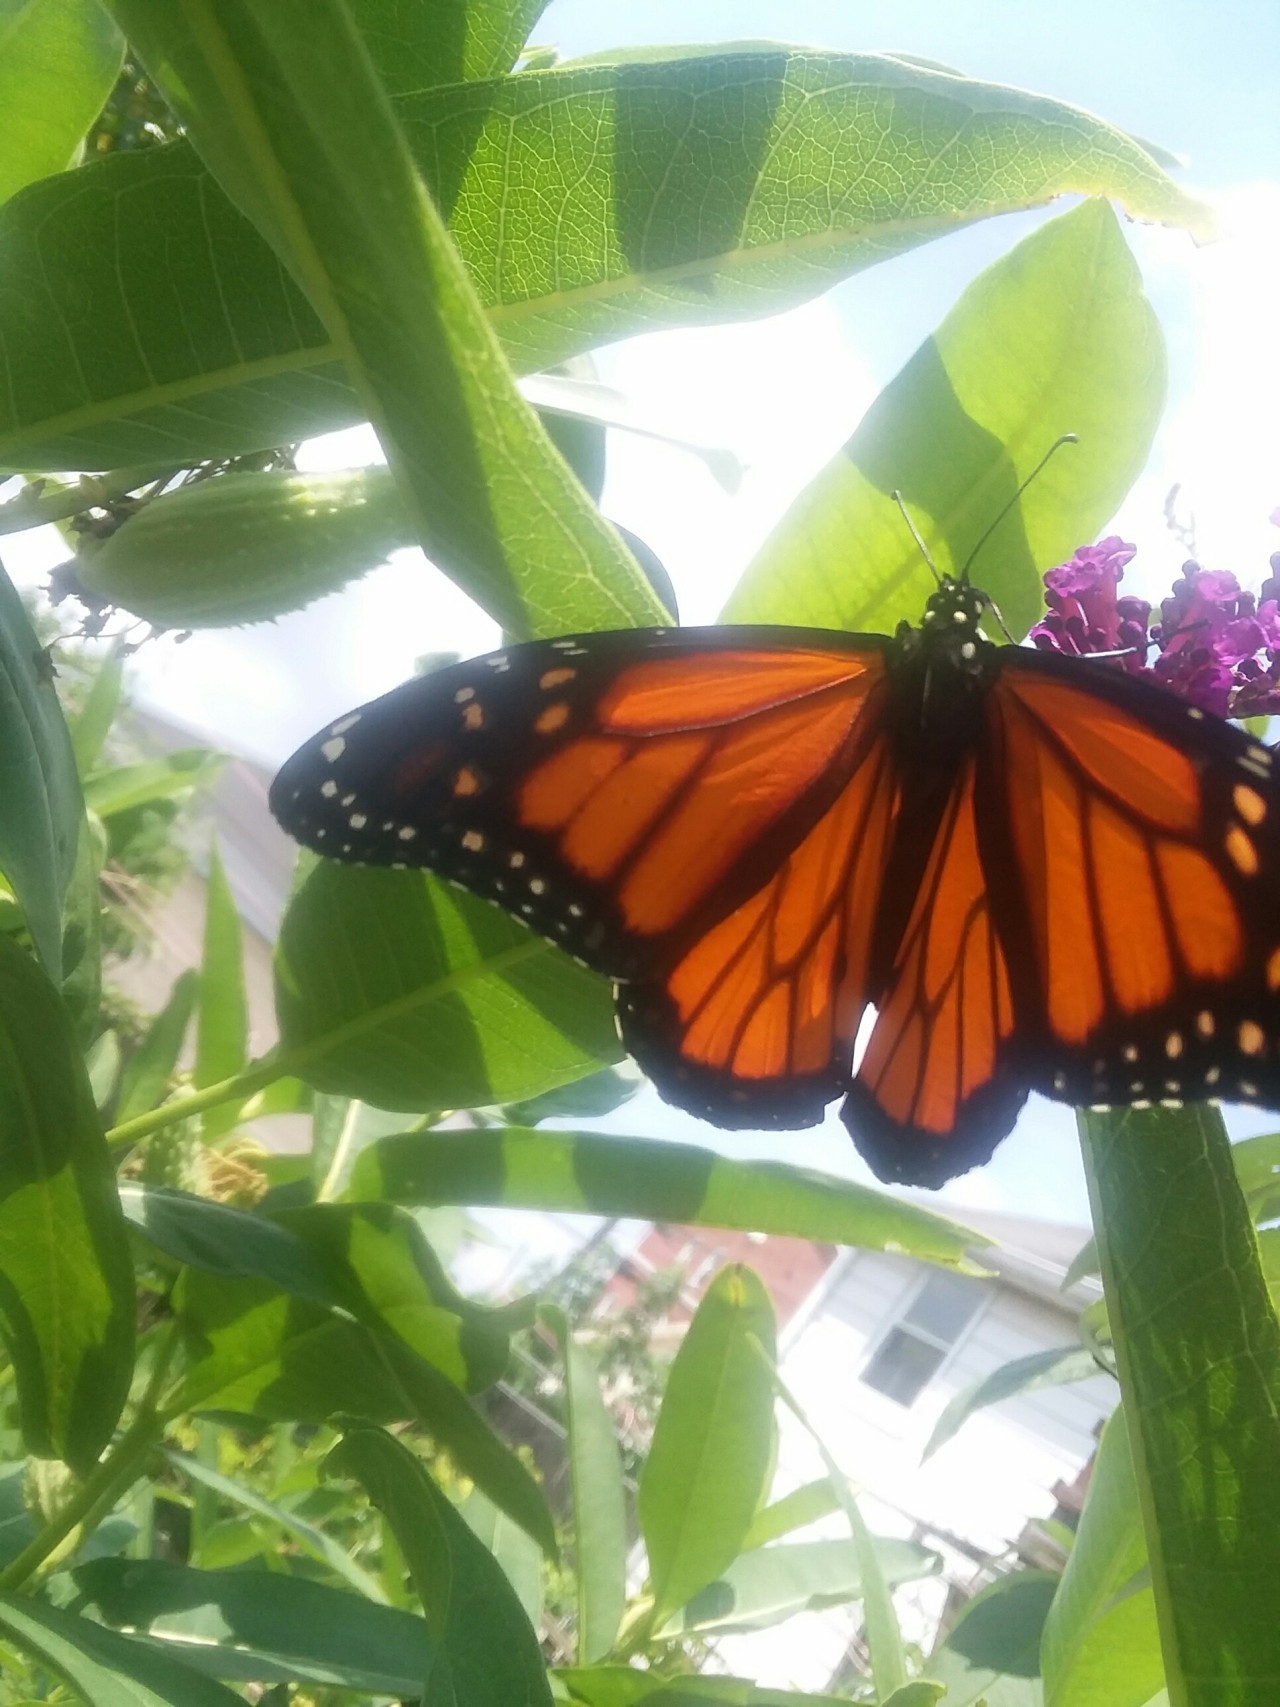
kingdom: Animalia
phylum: Arthropoda
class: Insecta
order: Lepidoptera
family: Nymphalidae
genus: Danaus
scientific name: Danaus plexippus
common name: Monarch
